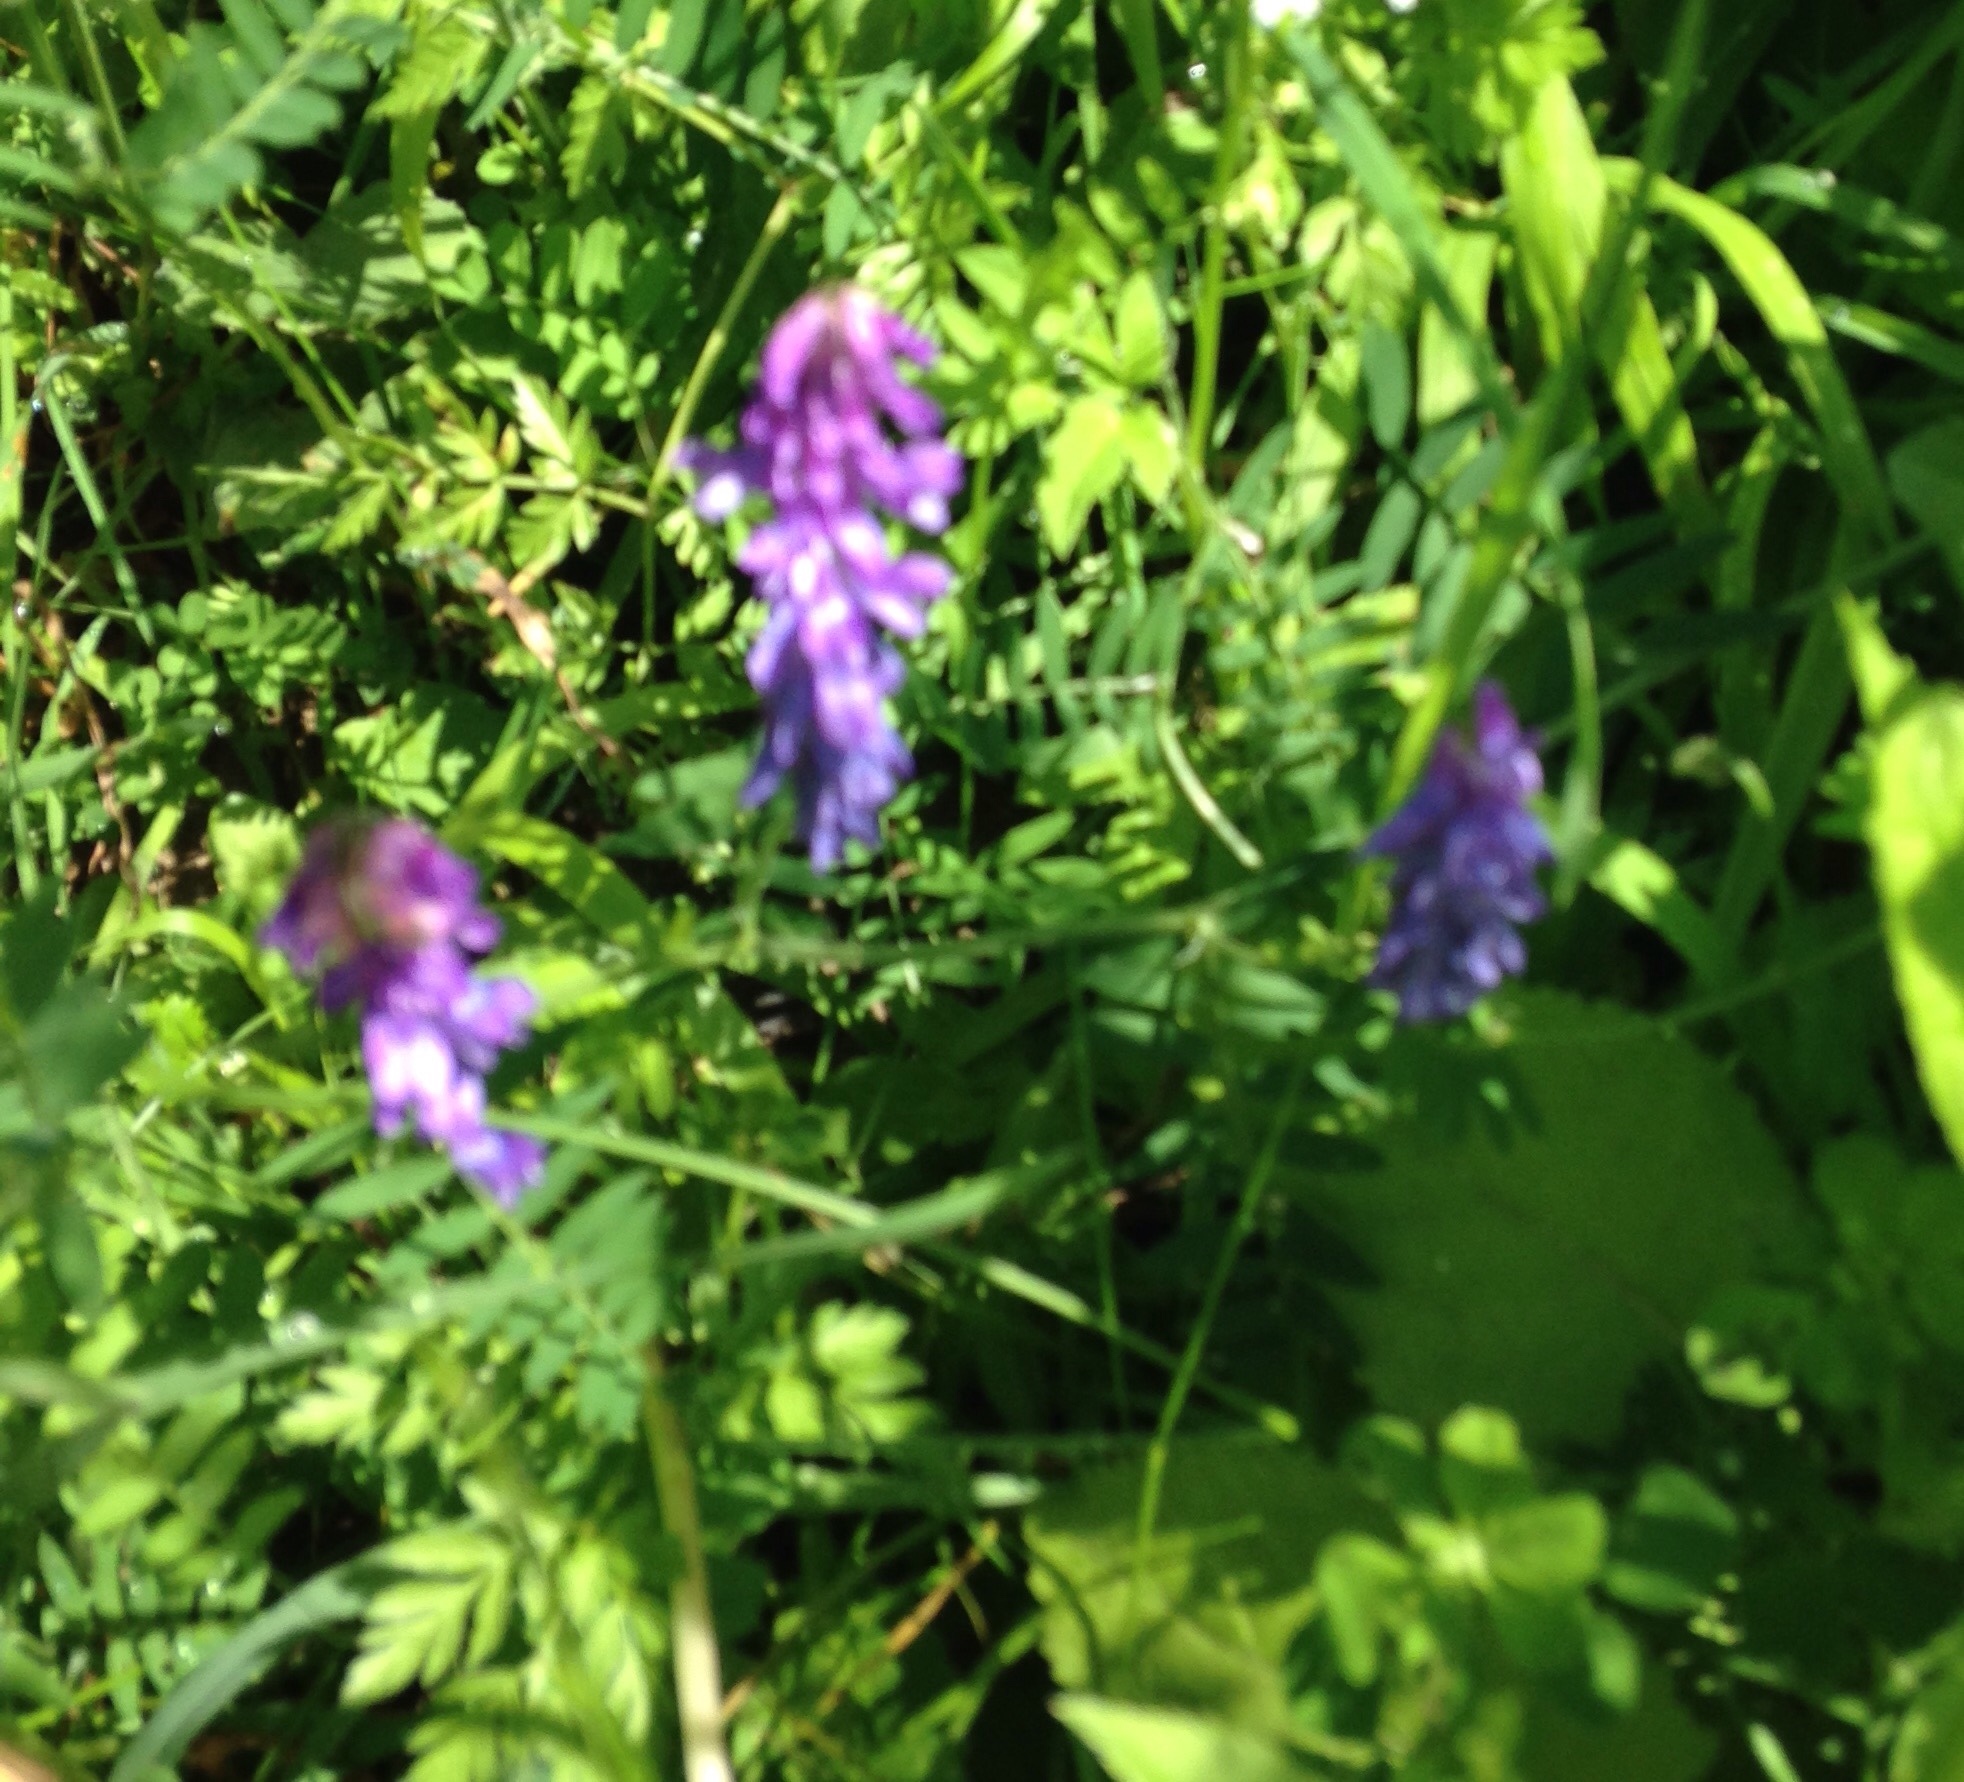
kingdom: Plantae
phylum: Tracheophyta
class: Magnoliopsida
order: Fabales
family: Fabaceae
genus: Vicia
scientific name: Vicia cracca
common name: Bird vetch
